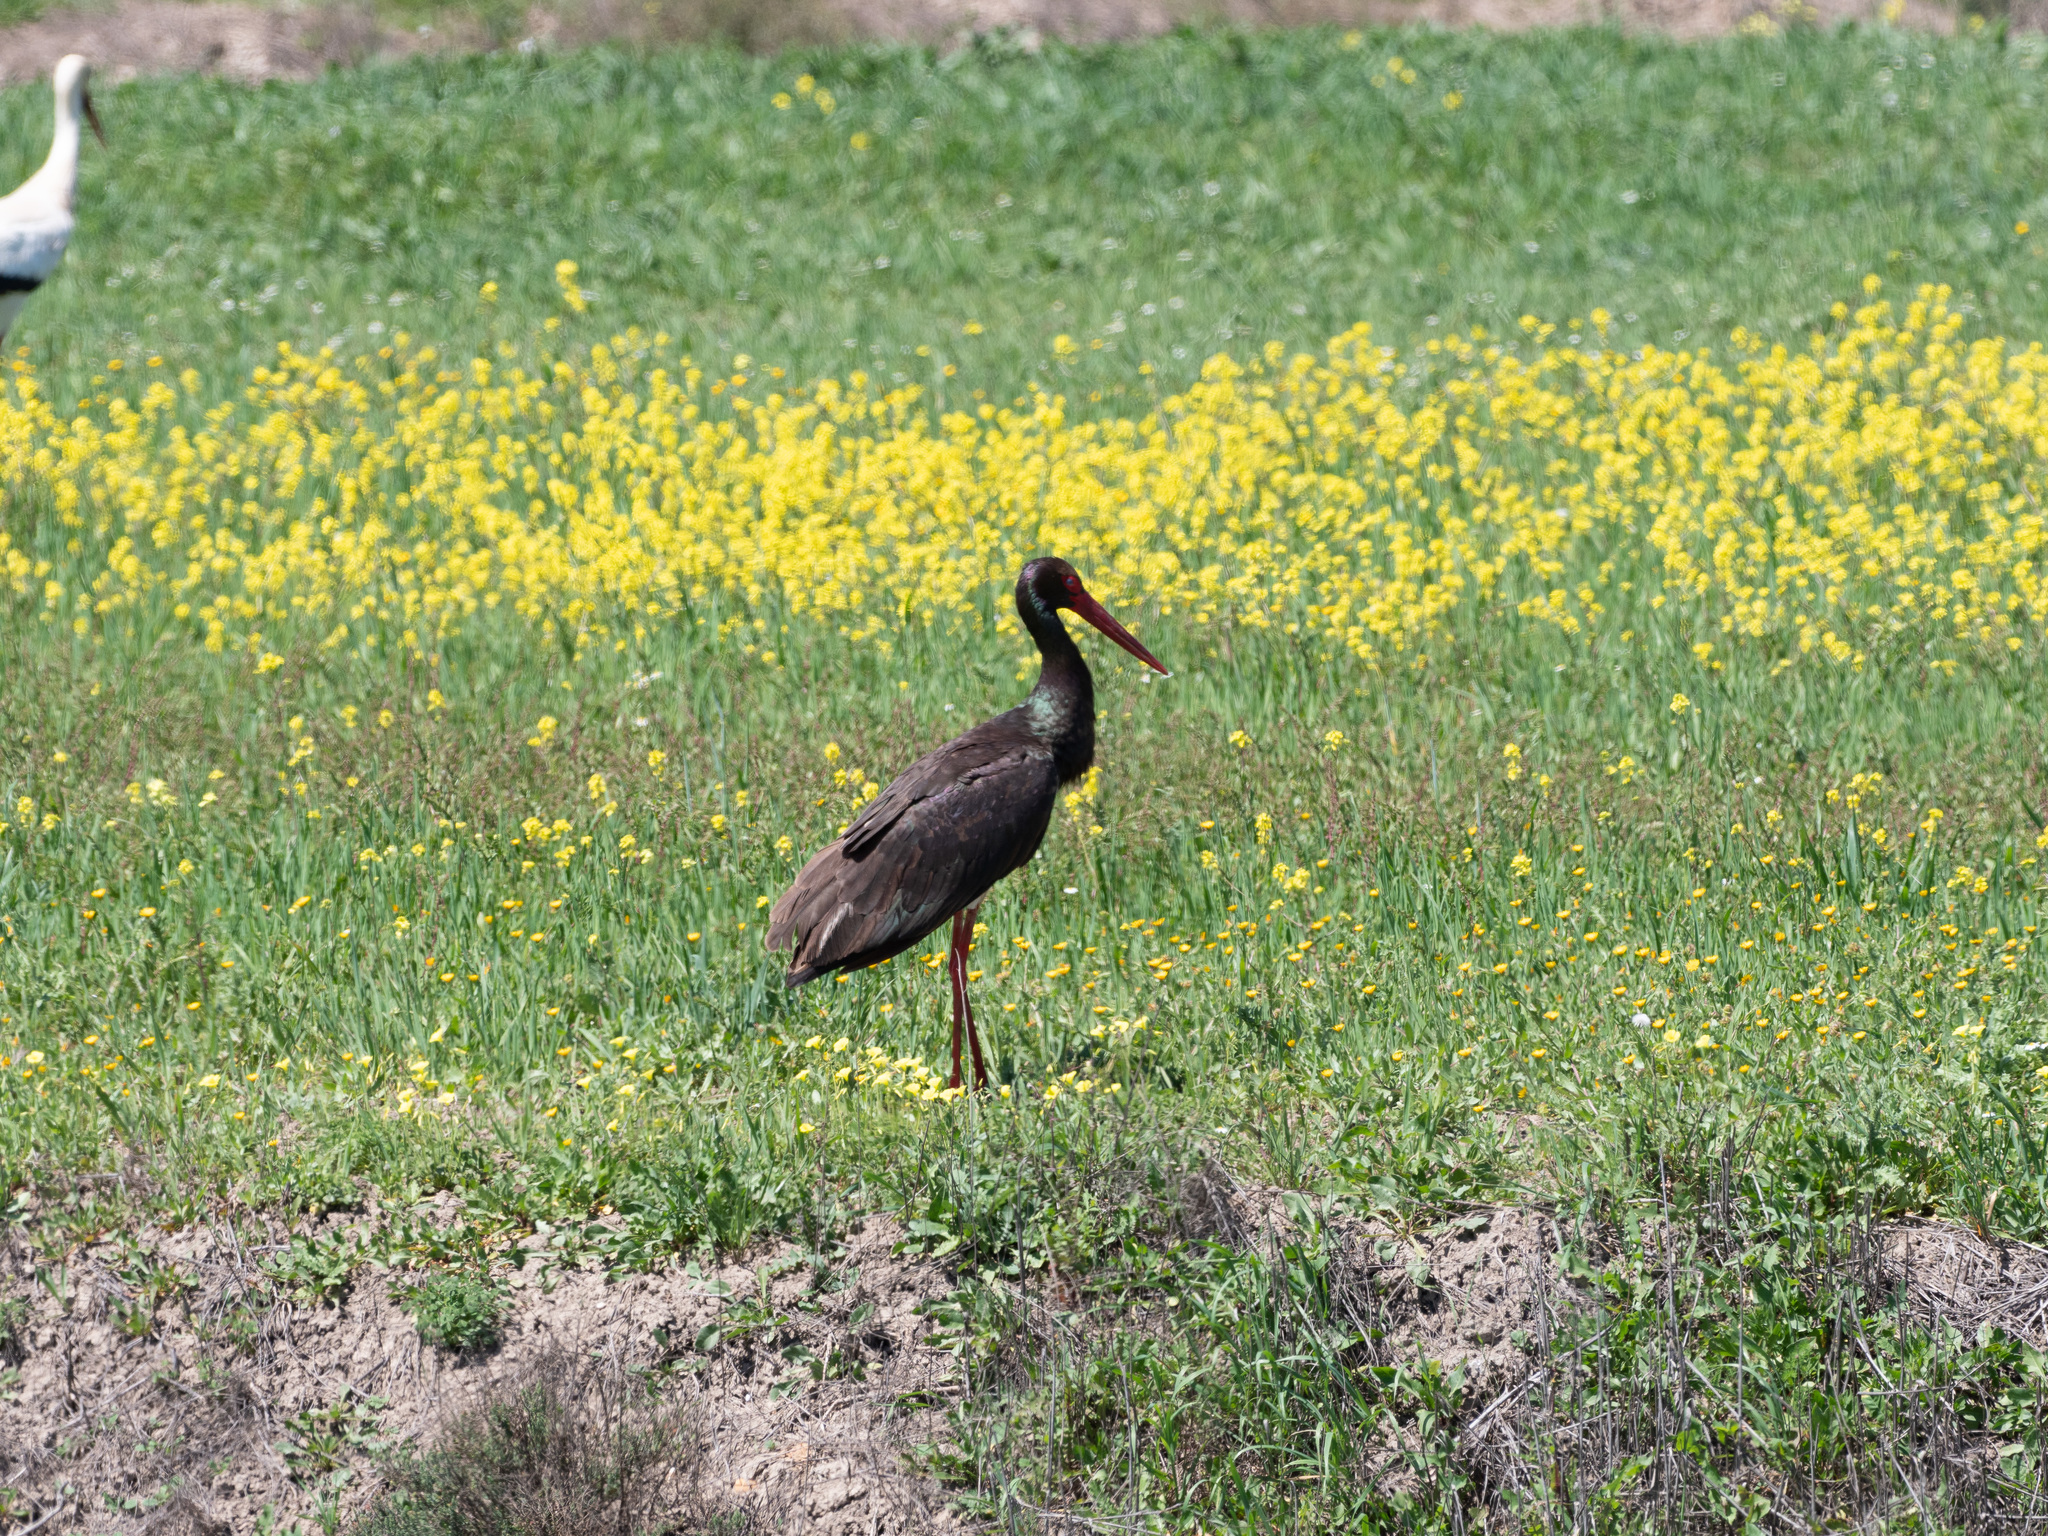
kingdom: Animalia
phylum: Chordata
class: Aves
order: Ciconiiformes
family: Ciconiidae
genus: Ciconia
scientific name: Ciconia nigra
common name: Black stork
